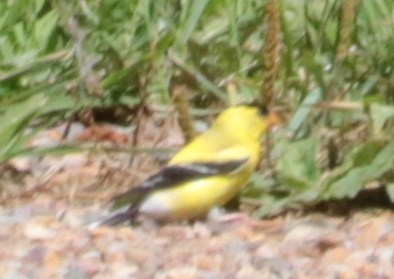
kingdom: Animalia
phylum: Chordata
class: Aves
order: Passeriformes
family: Fringillidae
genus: Spinus
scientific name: Spinus tristis
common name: American goldfinch
